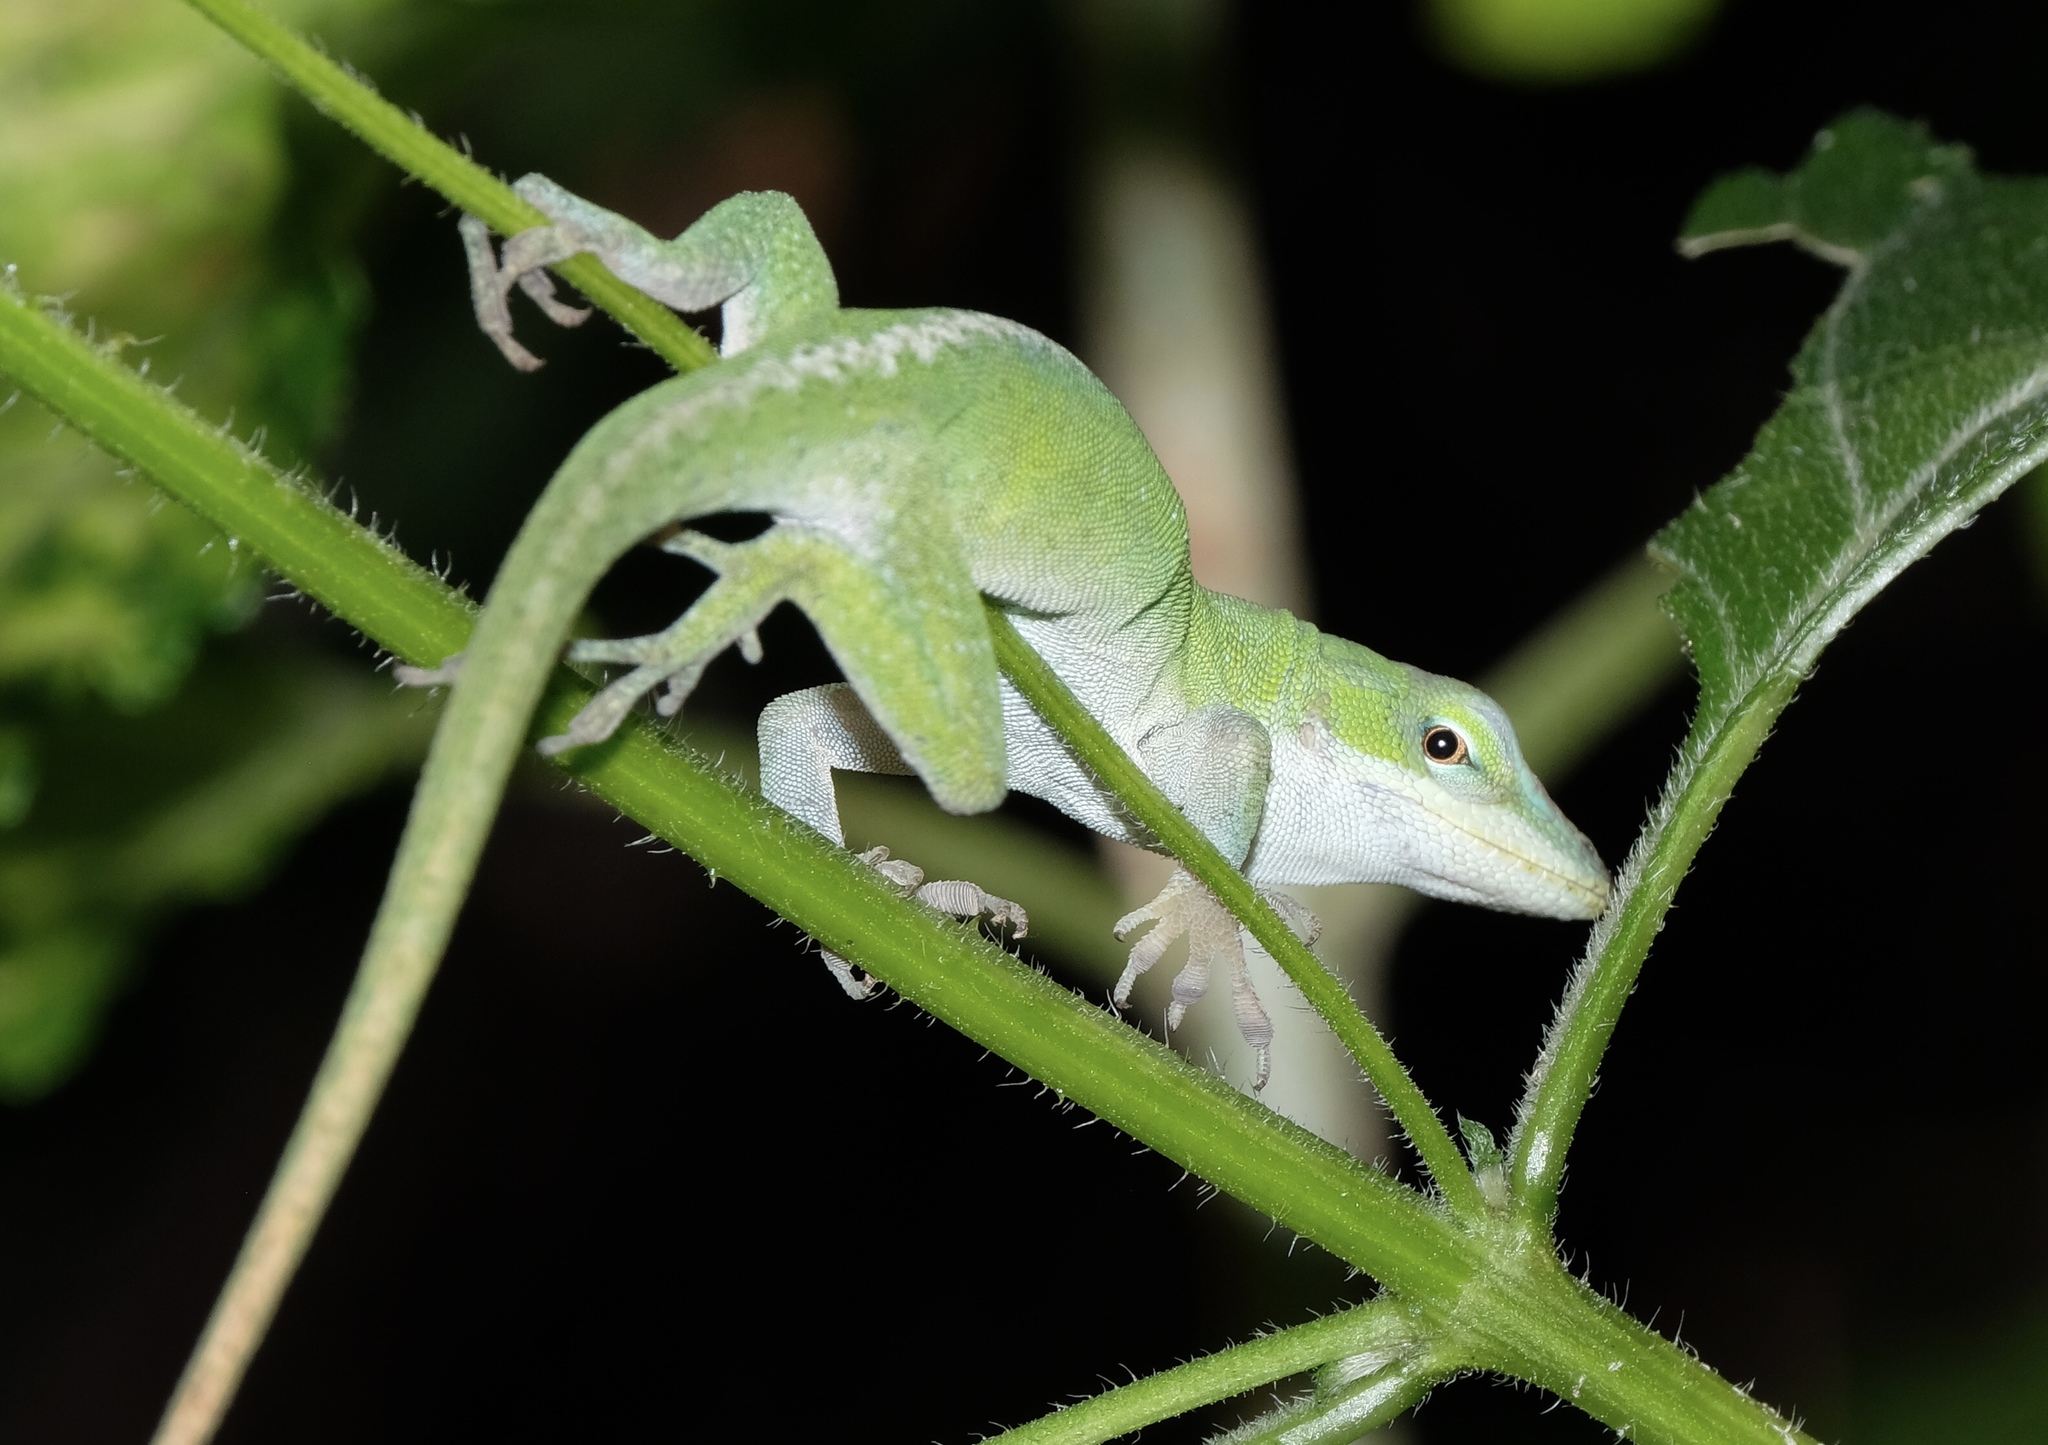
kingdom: Animalia
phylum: Chordata
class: Squamata
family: Dactyloidae
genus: Anolis
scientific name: Anolis carolinensis
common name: Green anole
